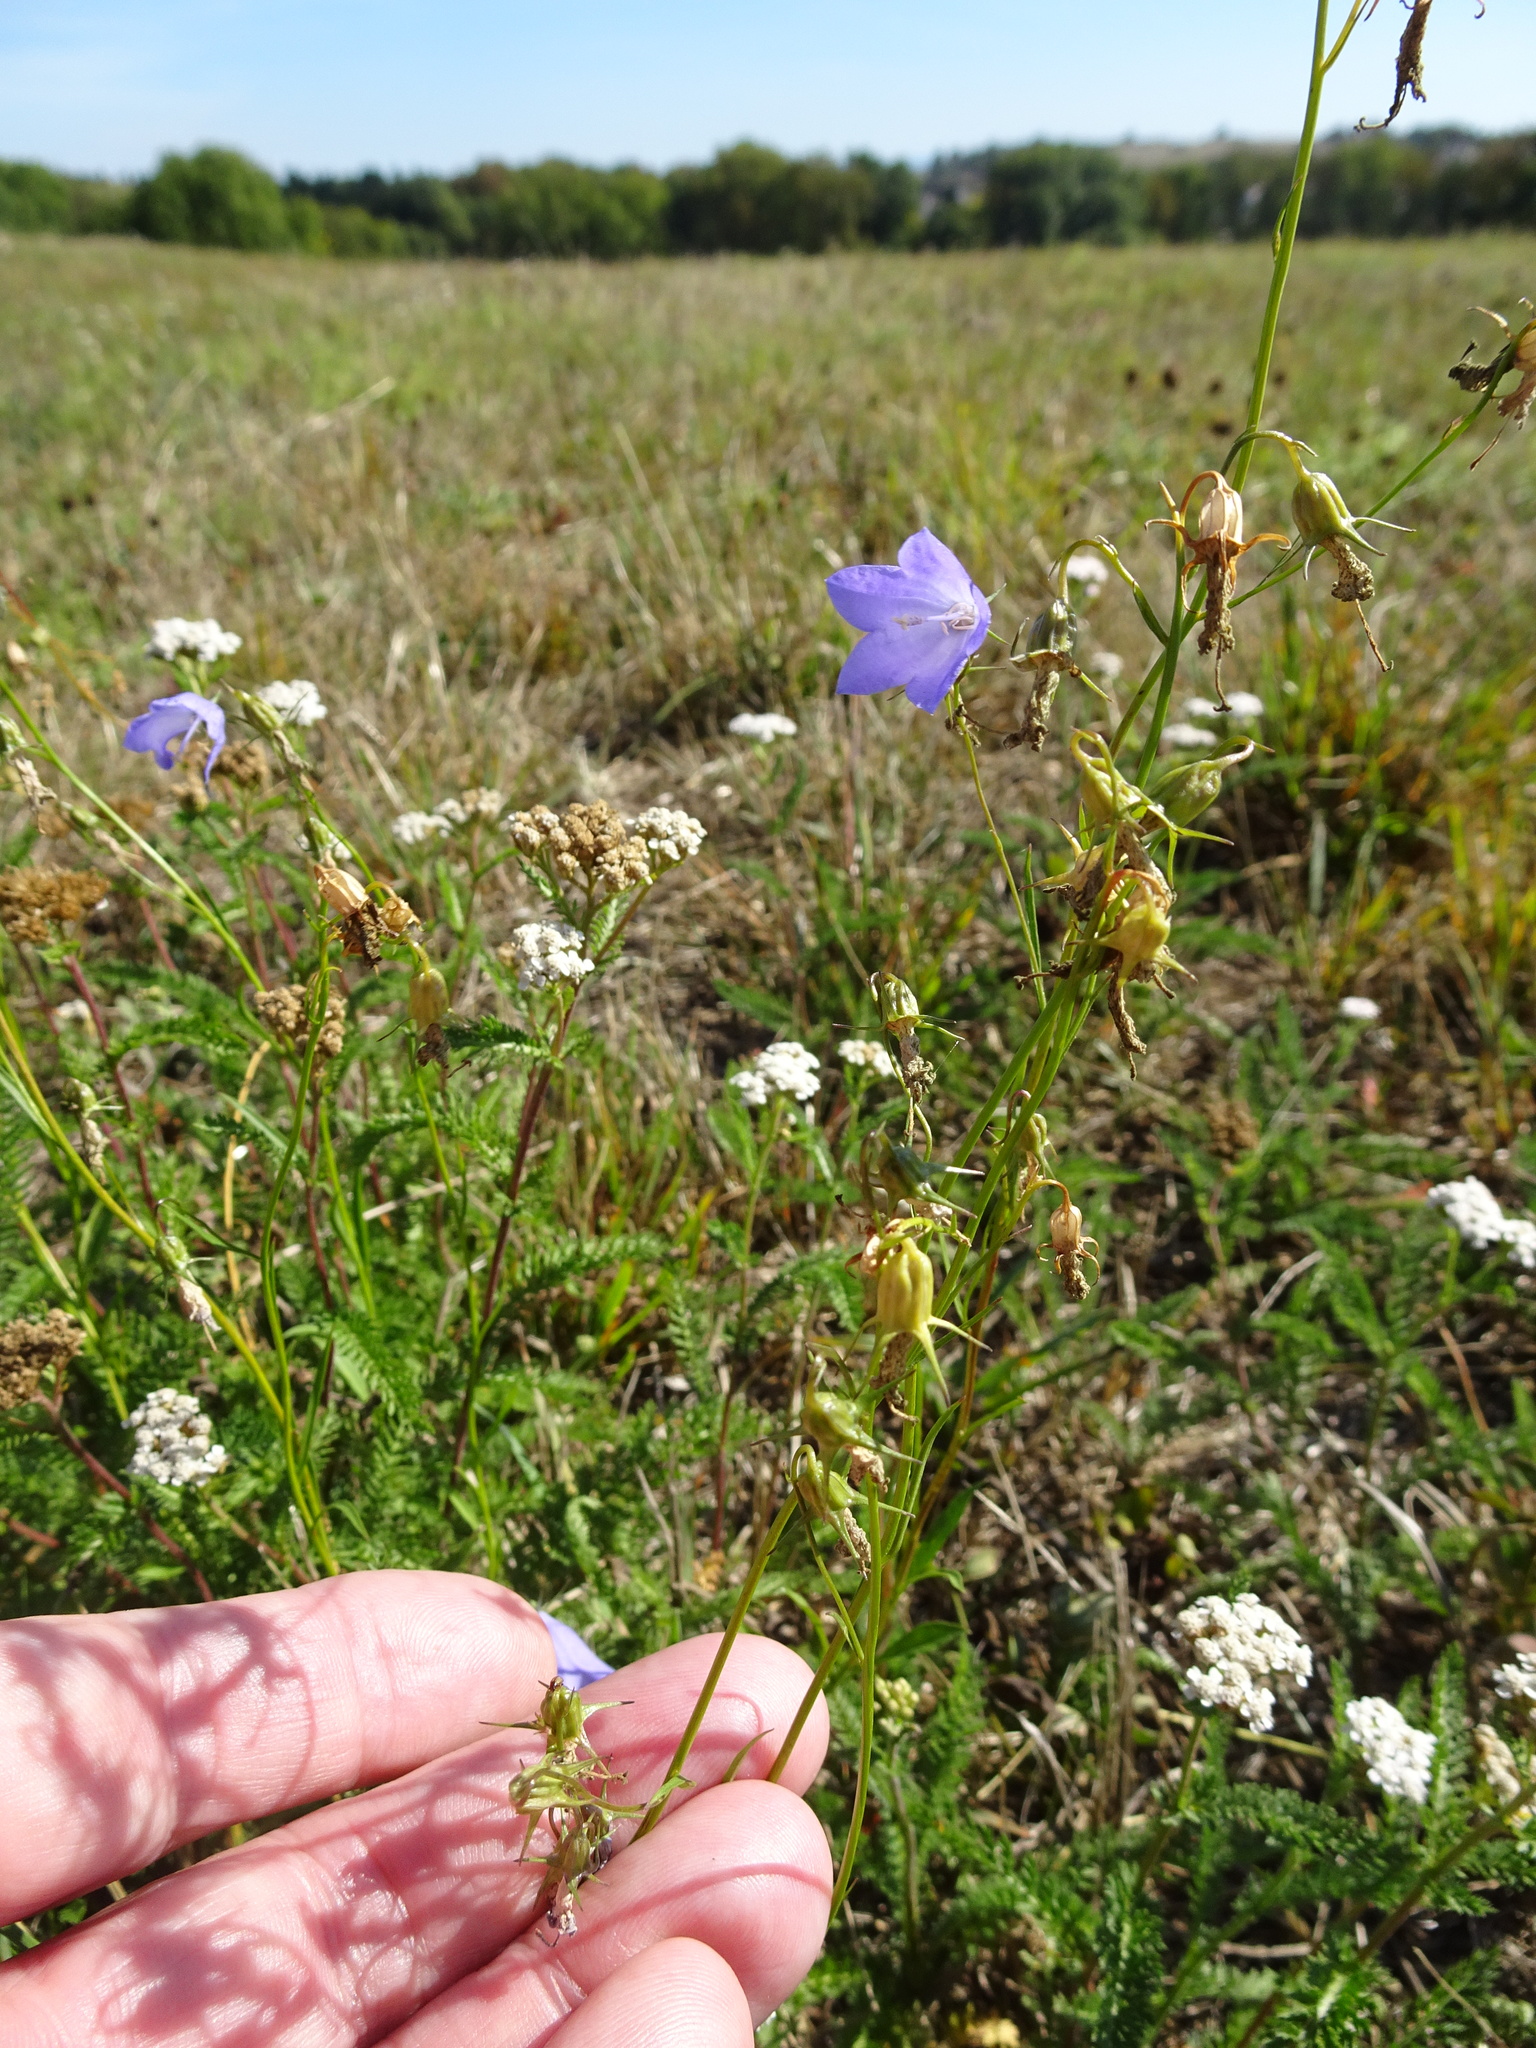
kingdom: Plantae
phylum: Tracheophyta
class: Magnoliopsida
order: Asterales
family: Campanulaceae
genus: Campanula
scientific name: Campanula rotundifolia
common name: Harebell
